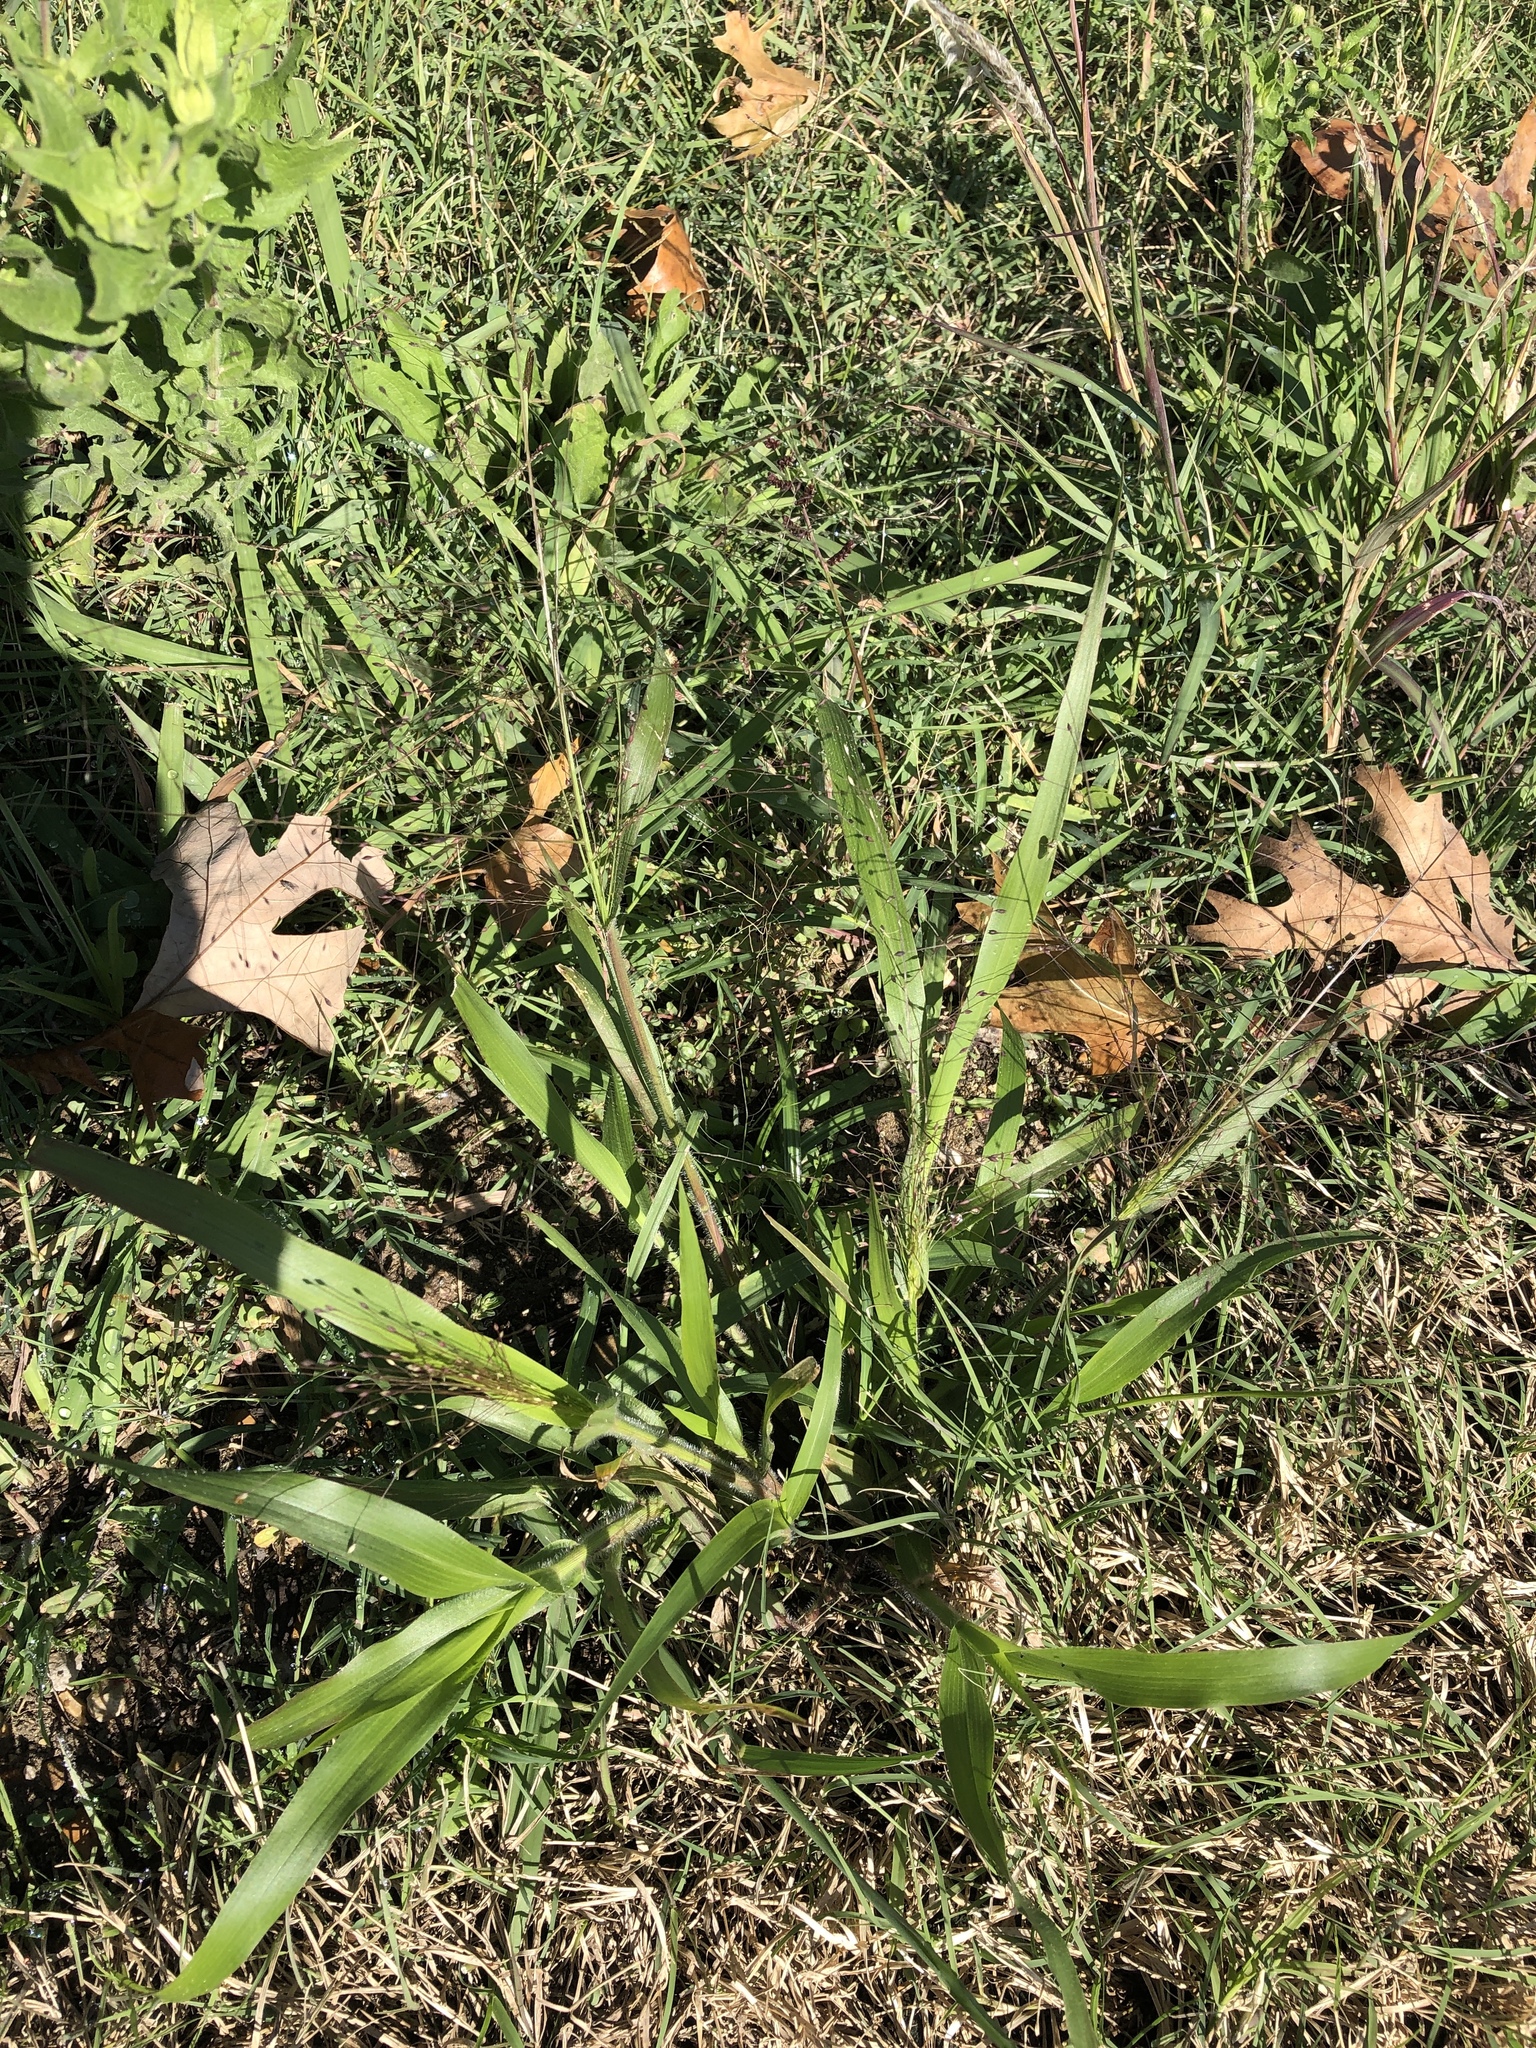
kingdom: Plantae
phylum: Tracheophyta
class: Liliopsida
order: Poales
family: Poaceae
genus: Panicum
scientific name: Panicum capillare
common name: Witch-grass
